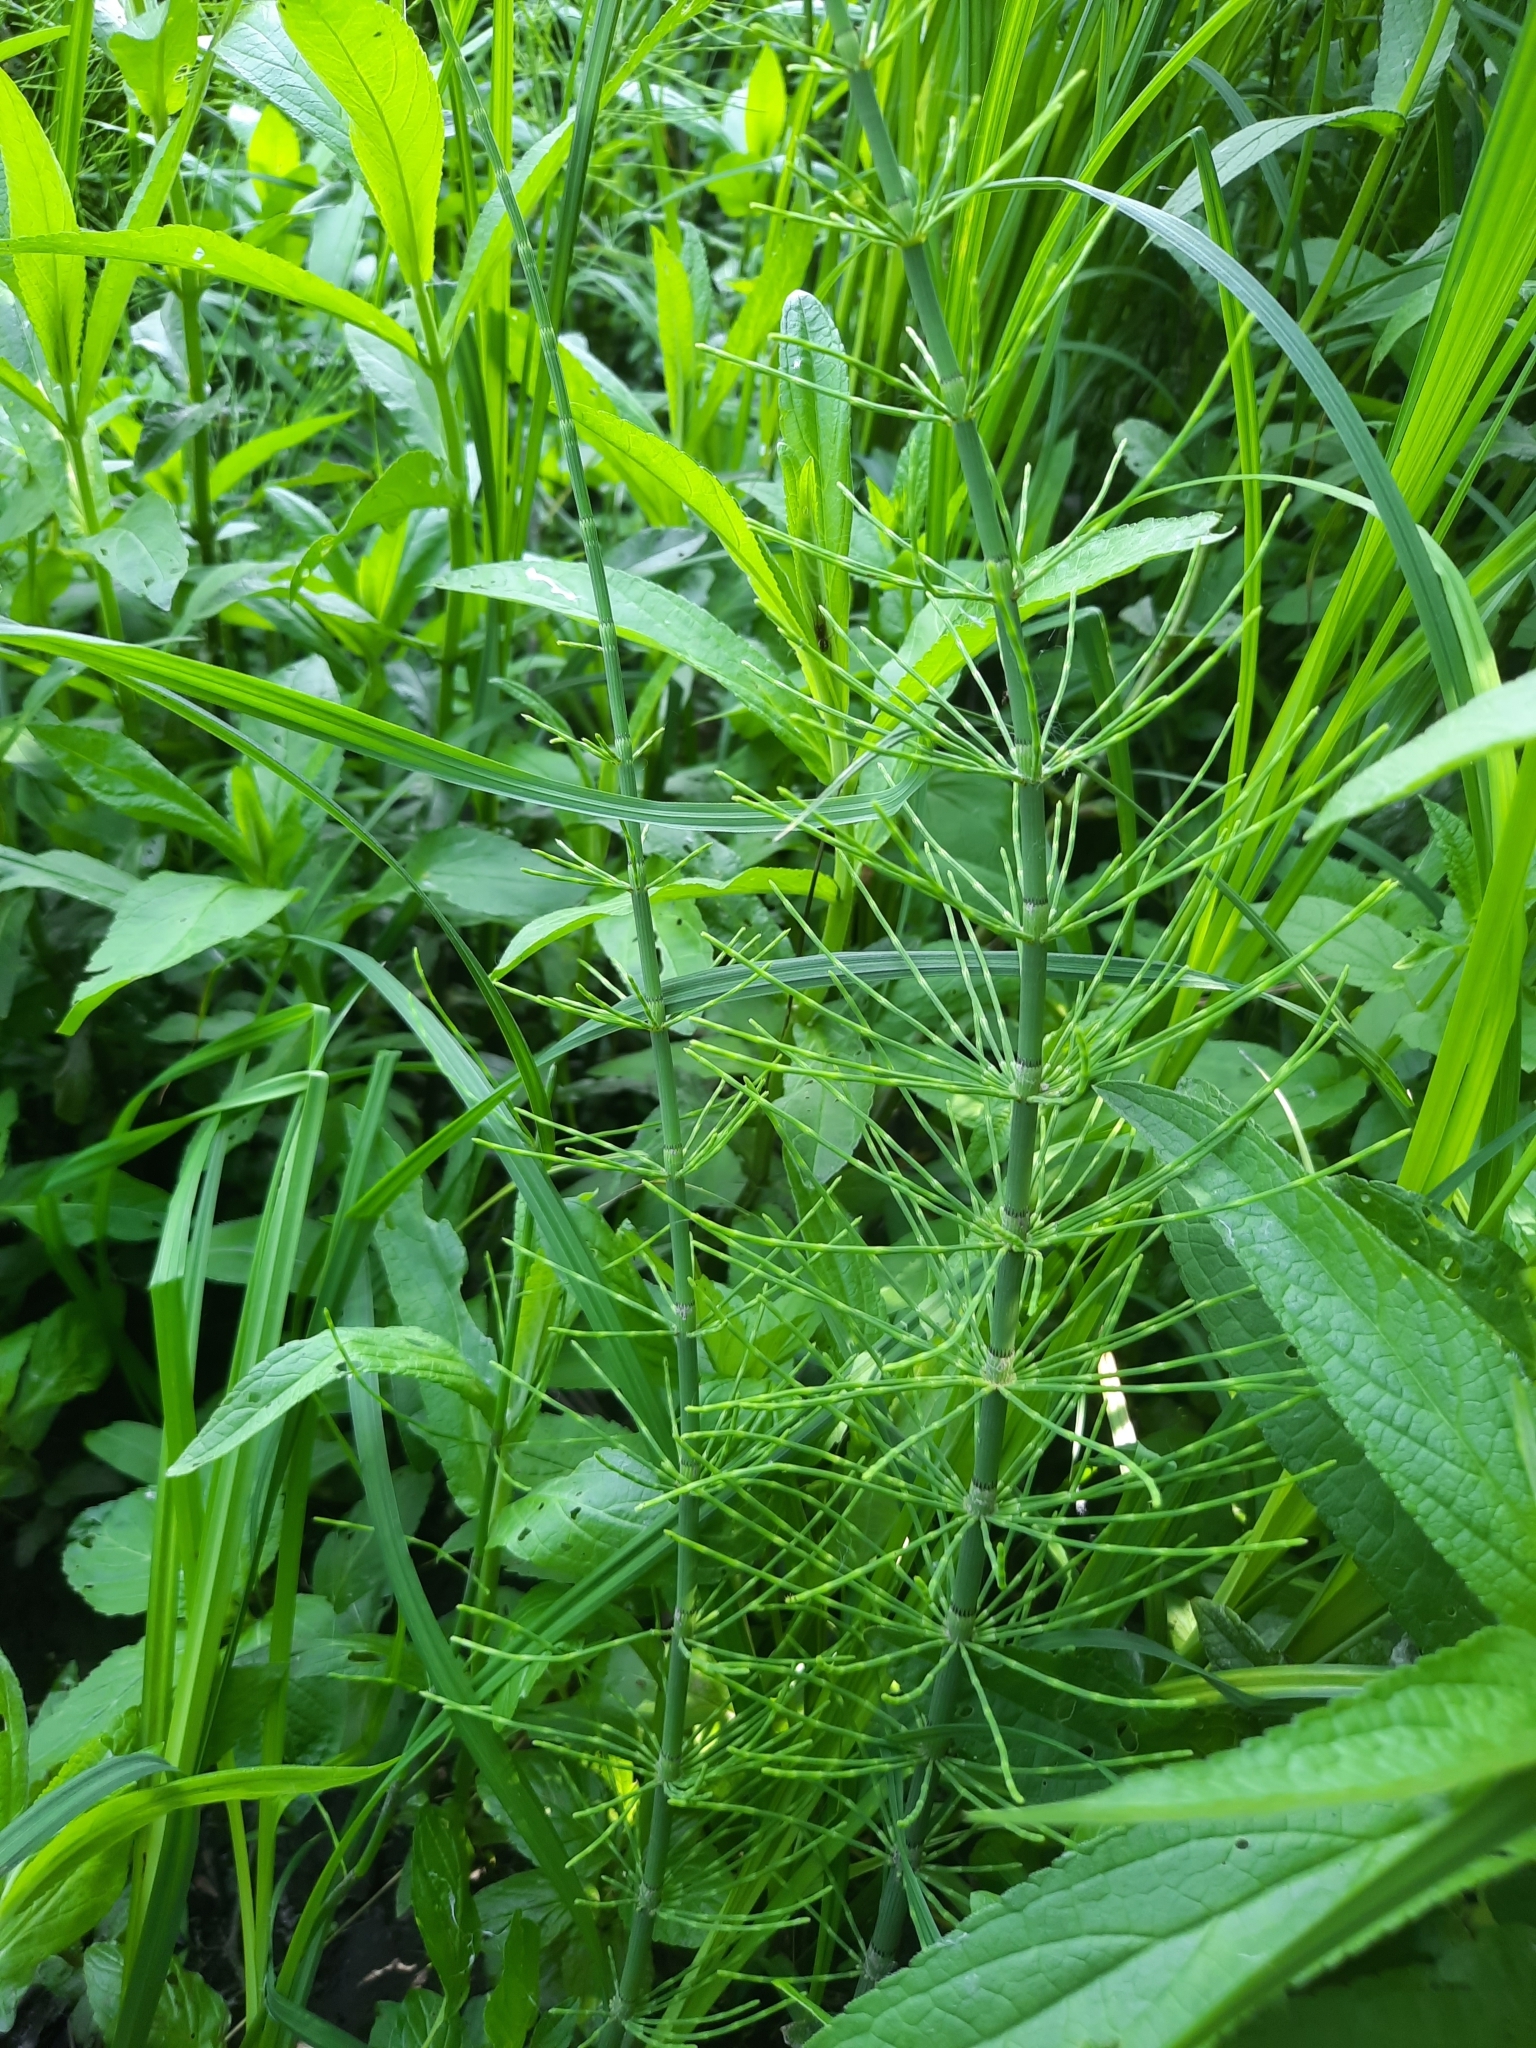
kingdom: Plantae
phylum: Tracheophyta
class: Polypodiopsida
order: Equisetales
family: Equisetaceae
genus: Equisetum
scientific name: Equisetum fluviatile
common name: Water horsetail
